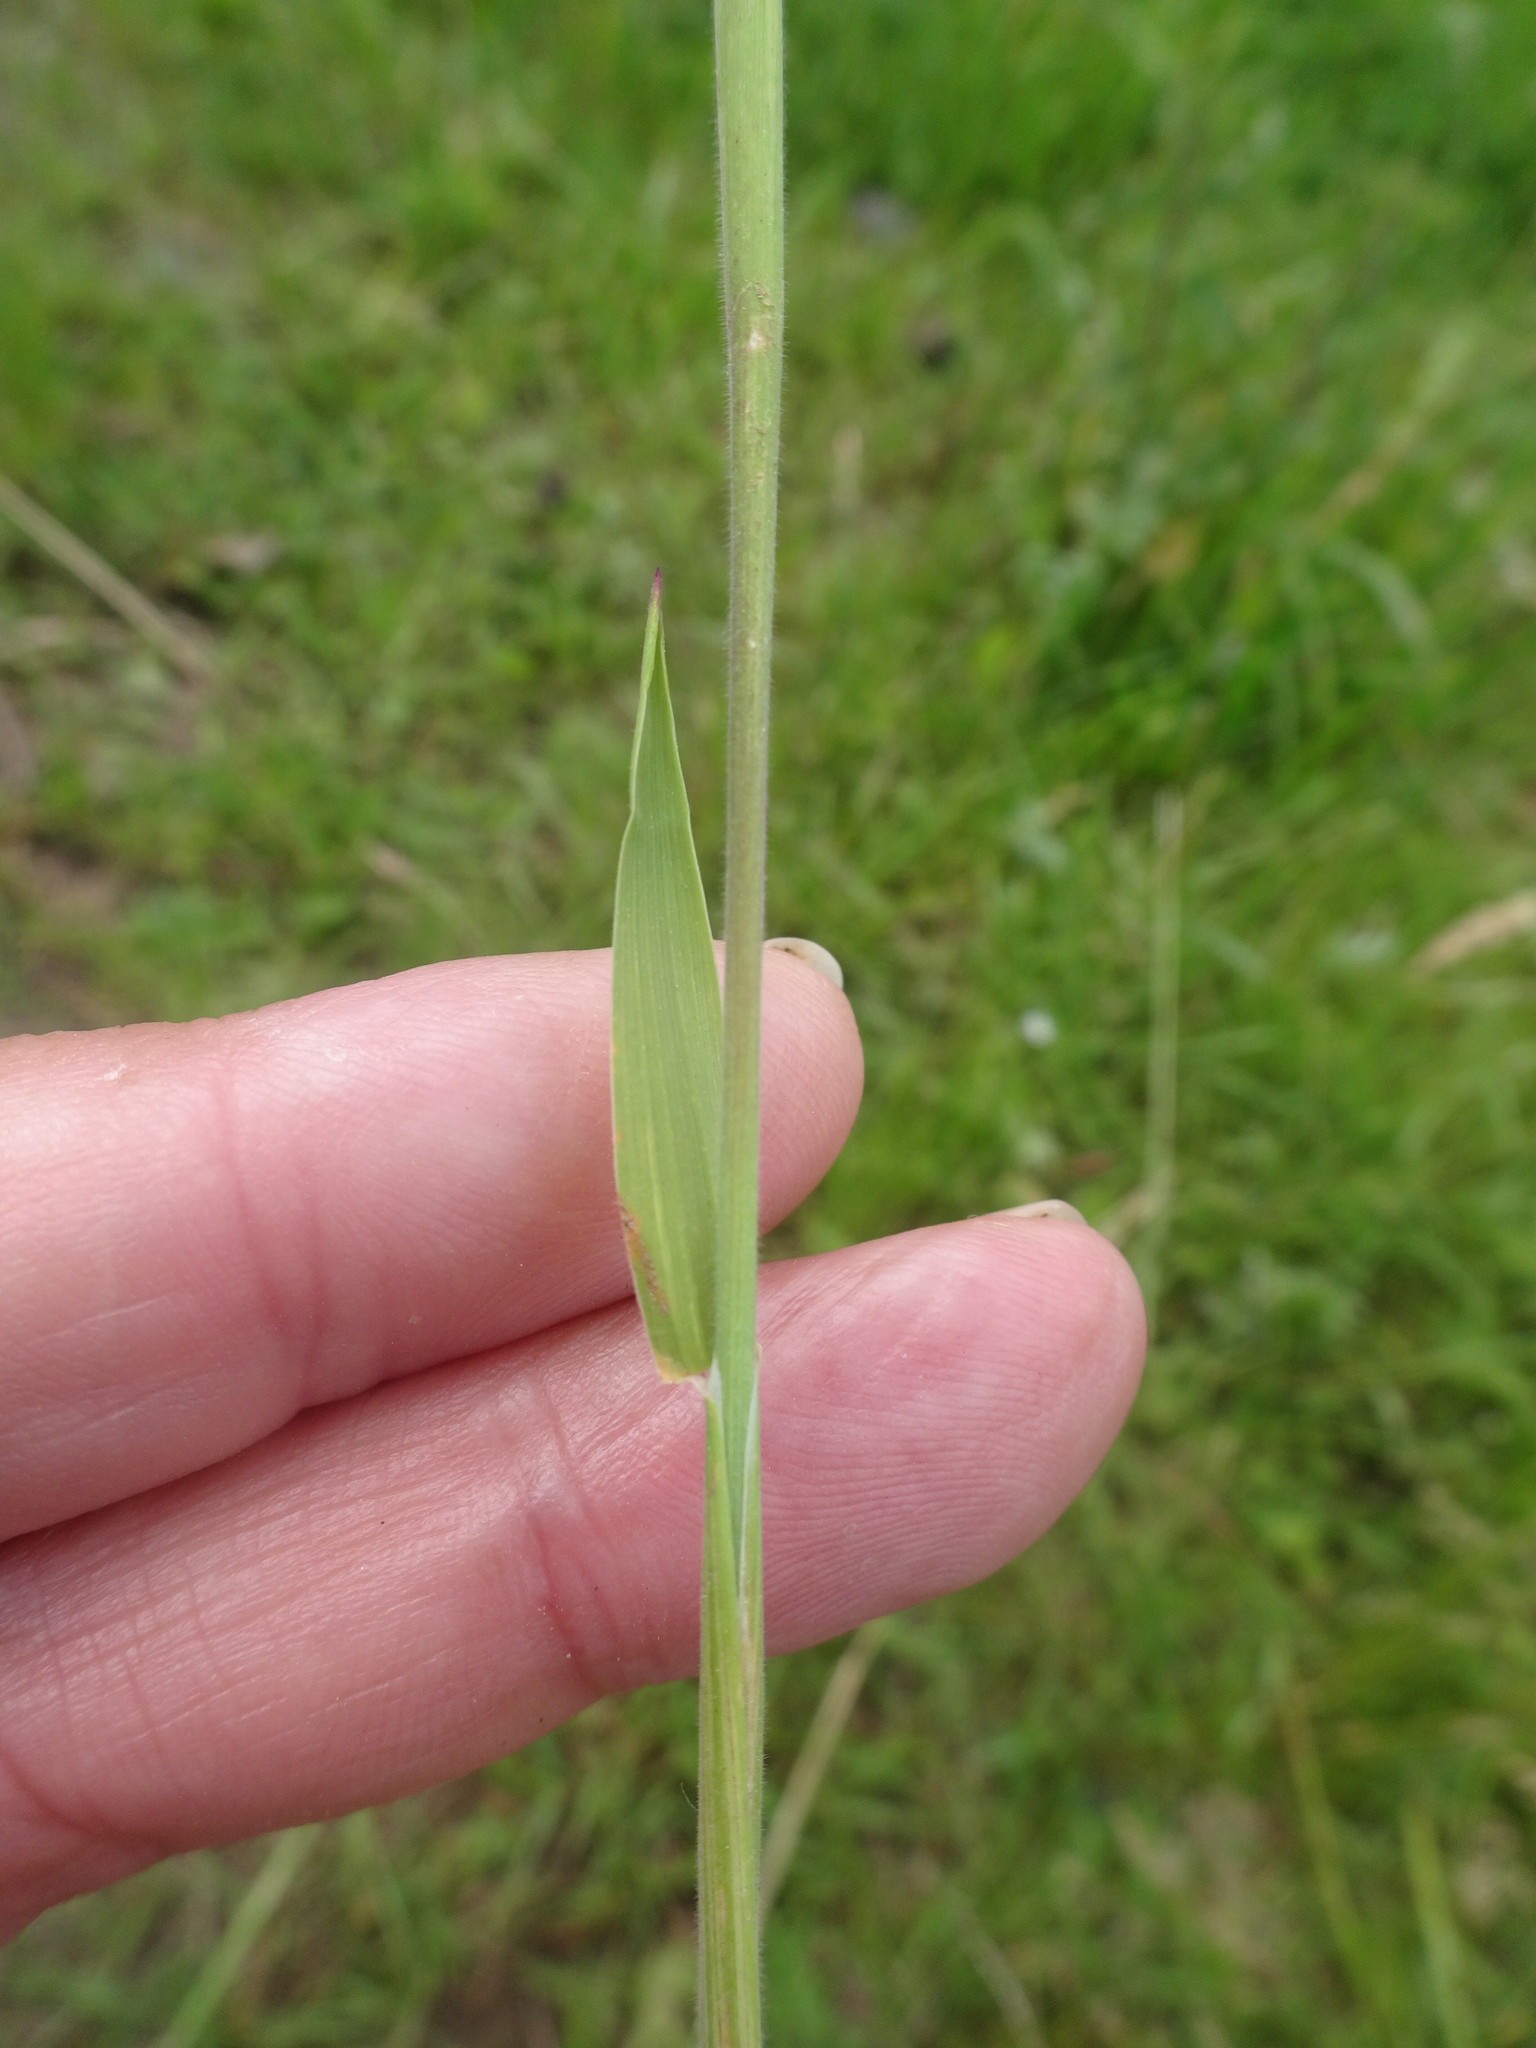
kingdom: Plantae
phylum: Tracheophyta
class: Liliopsida
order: Poales
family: Poaceae
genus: Holcus
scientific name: Holcus lanatus
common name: Yorkshire-fog
